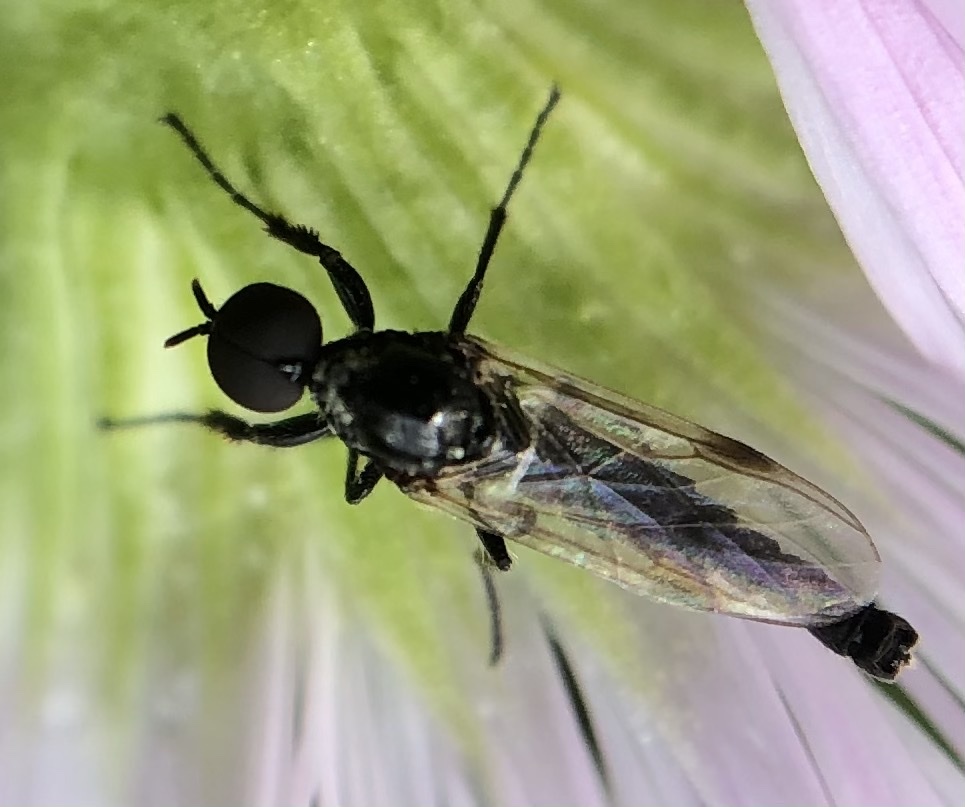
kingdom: Animalia
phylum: Arthropoda
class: Insecta
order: Diptera
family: Bibionidae
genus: Dilophus
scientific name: Dilophus
